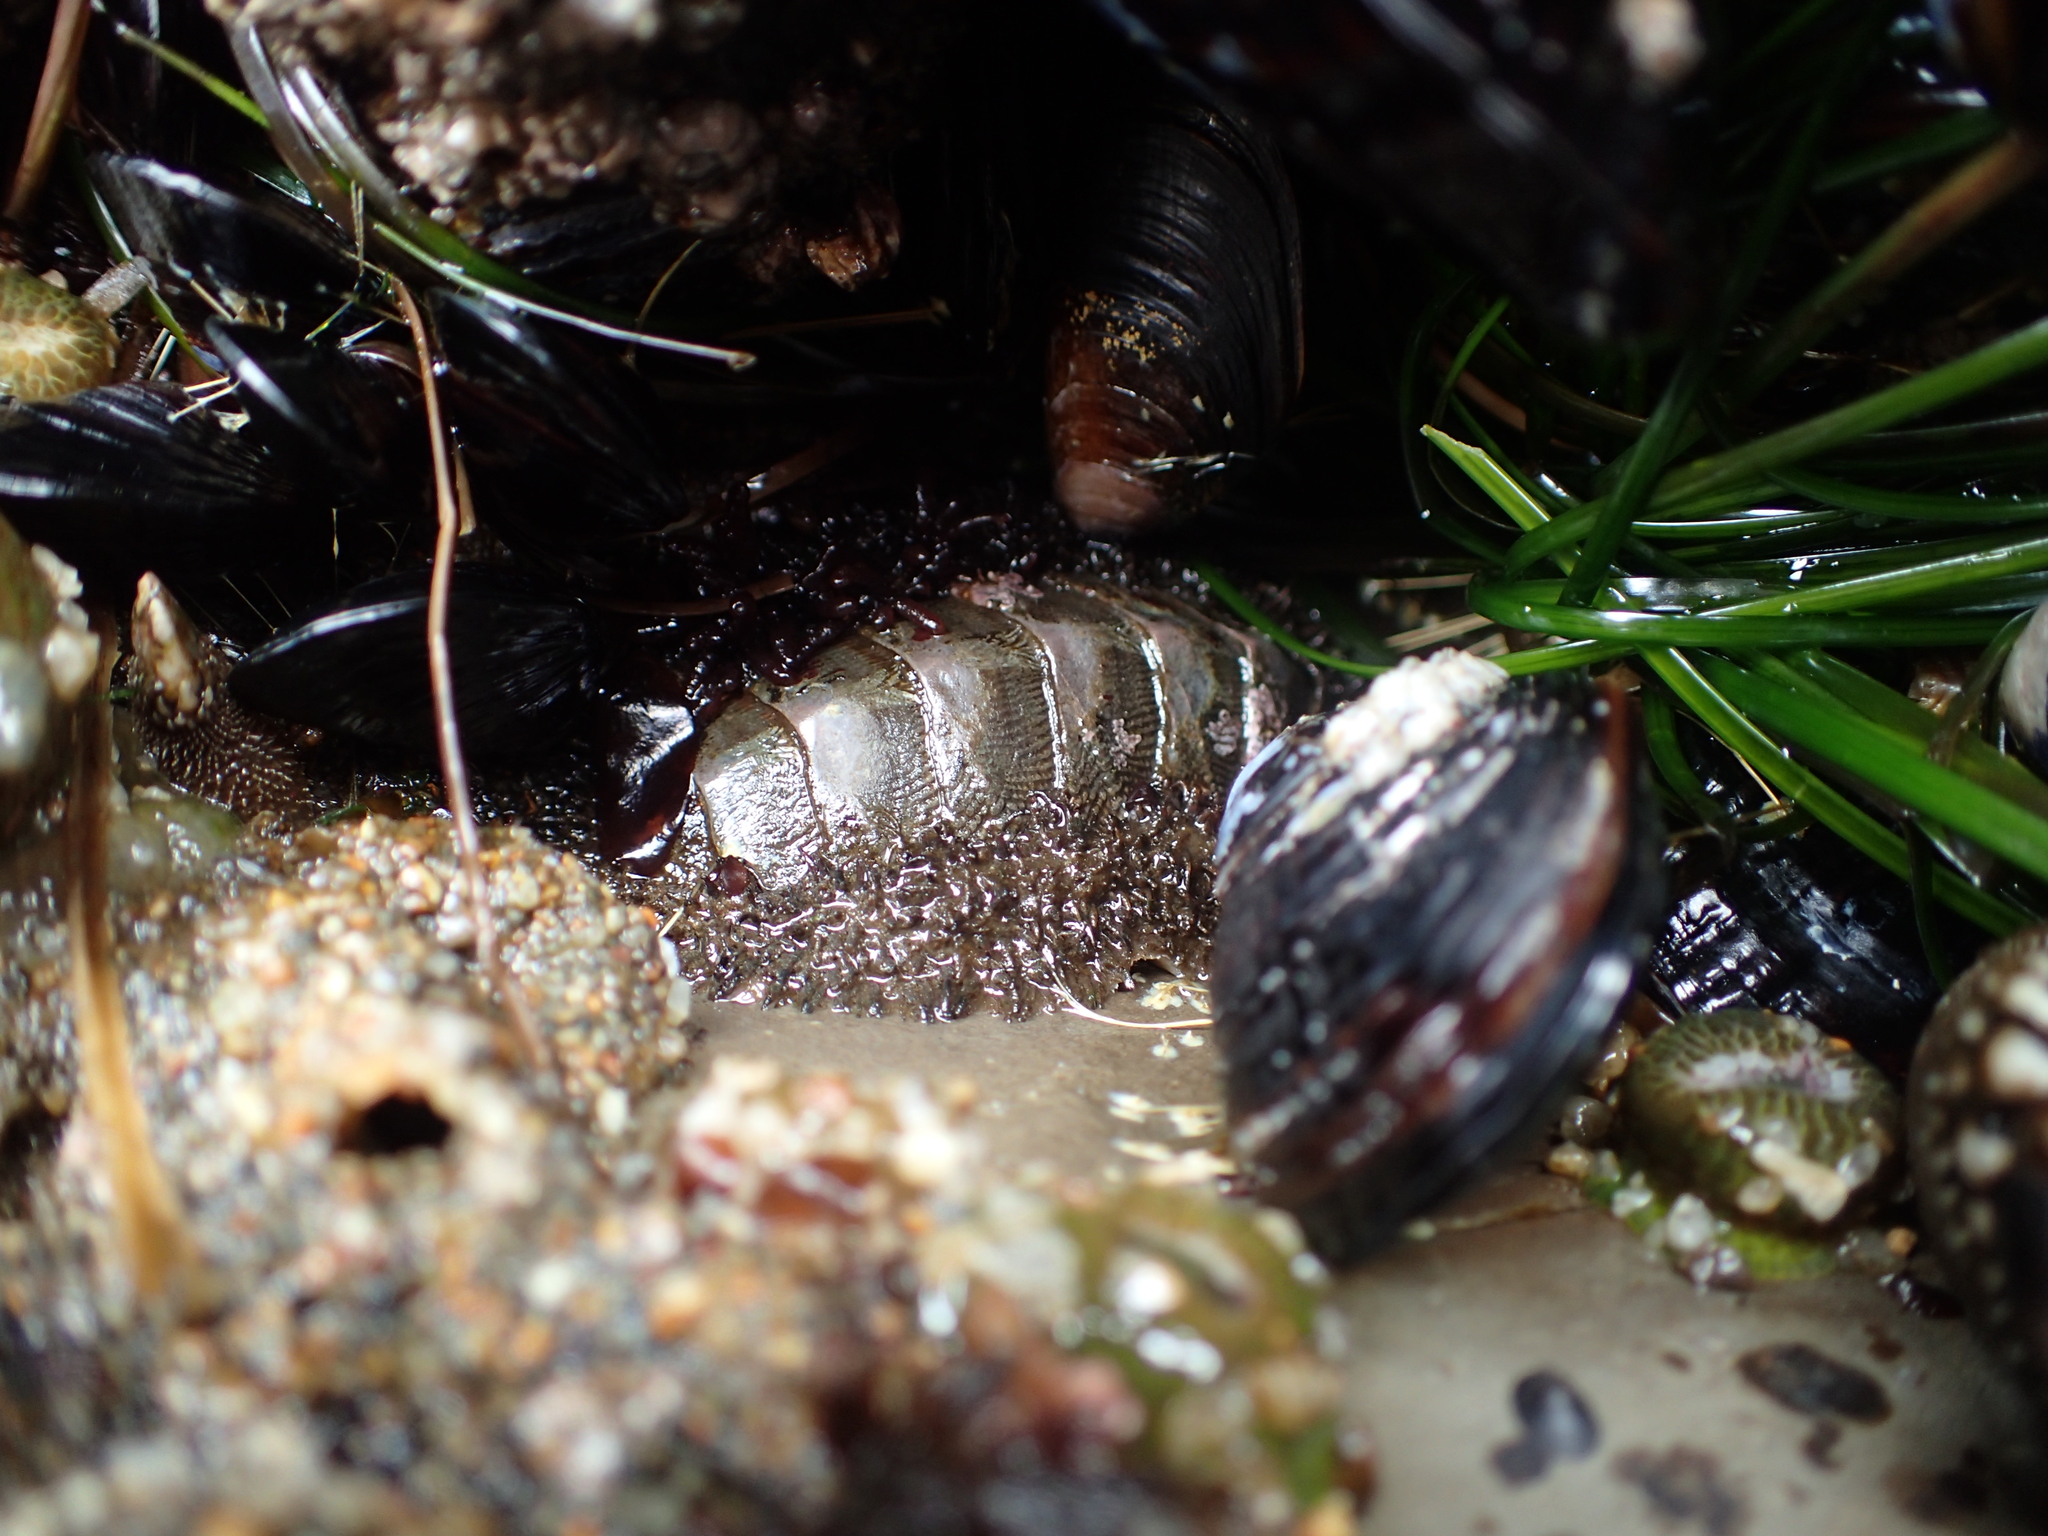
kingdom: Animalia
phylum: Mollusca
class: Polyplacophora
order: Chitonida
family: Mopaliidae
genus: Mopalia
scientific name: Mopalia muscosa
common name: Mossy chiton
